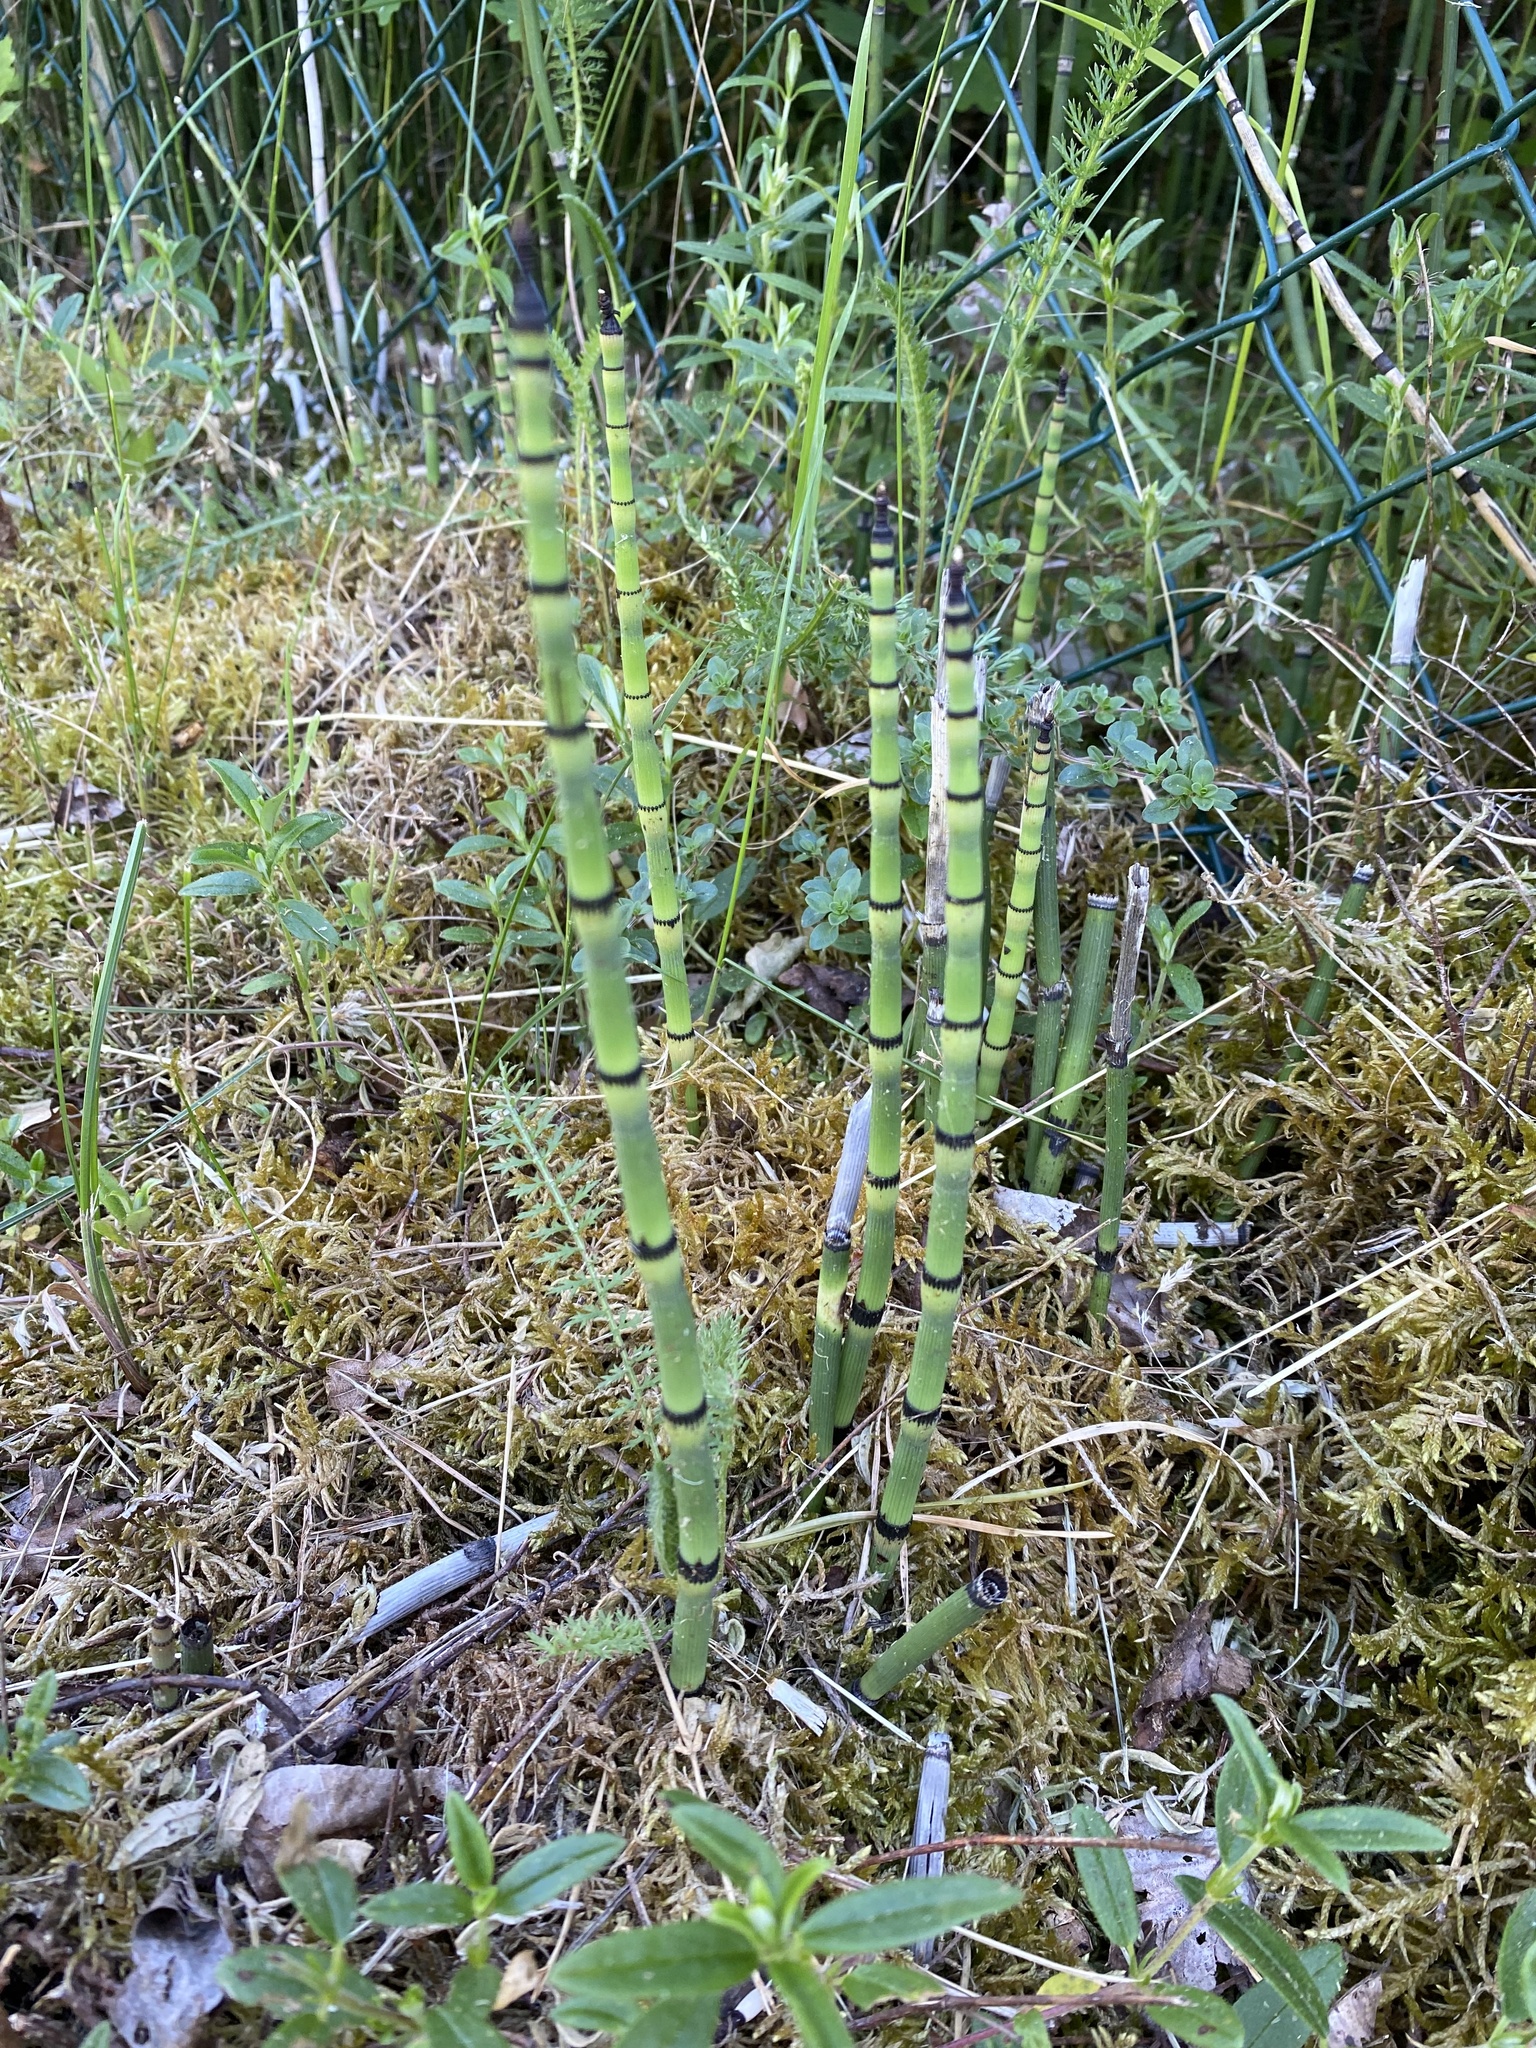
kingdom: Plantae
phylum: Tracheophyta
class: Polypodiopsida
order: Equisetales
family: Equisetaceae
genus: Equisetum
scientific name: Equisetum hyemale
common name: Rough horsetail
